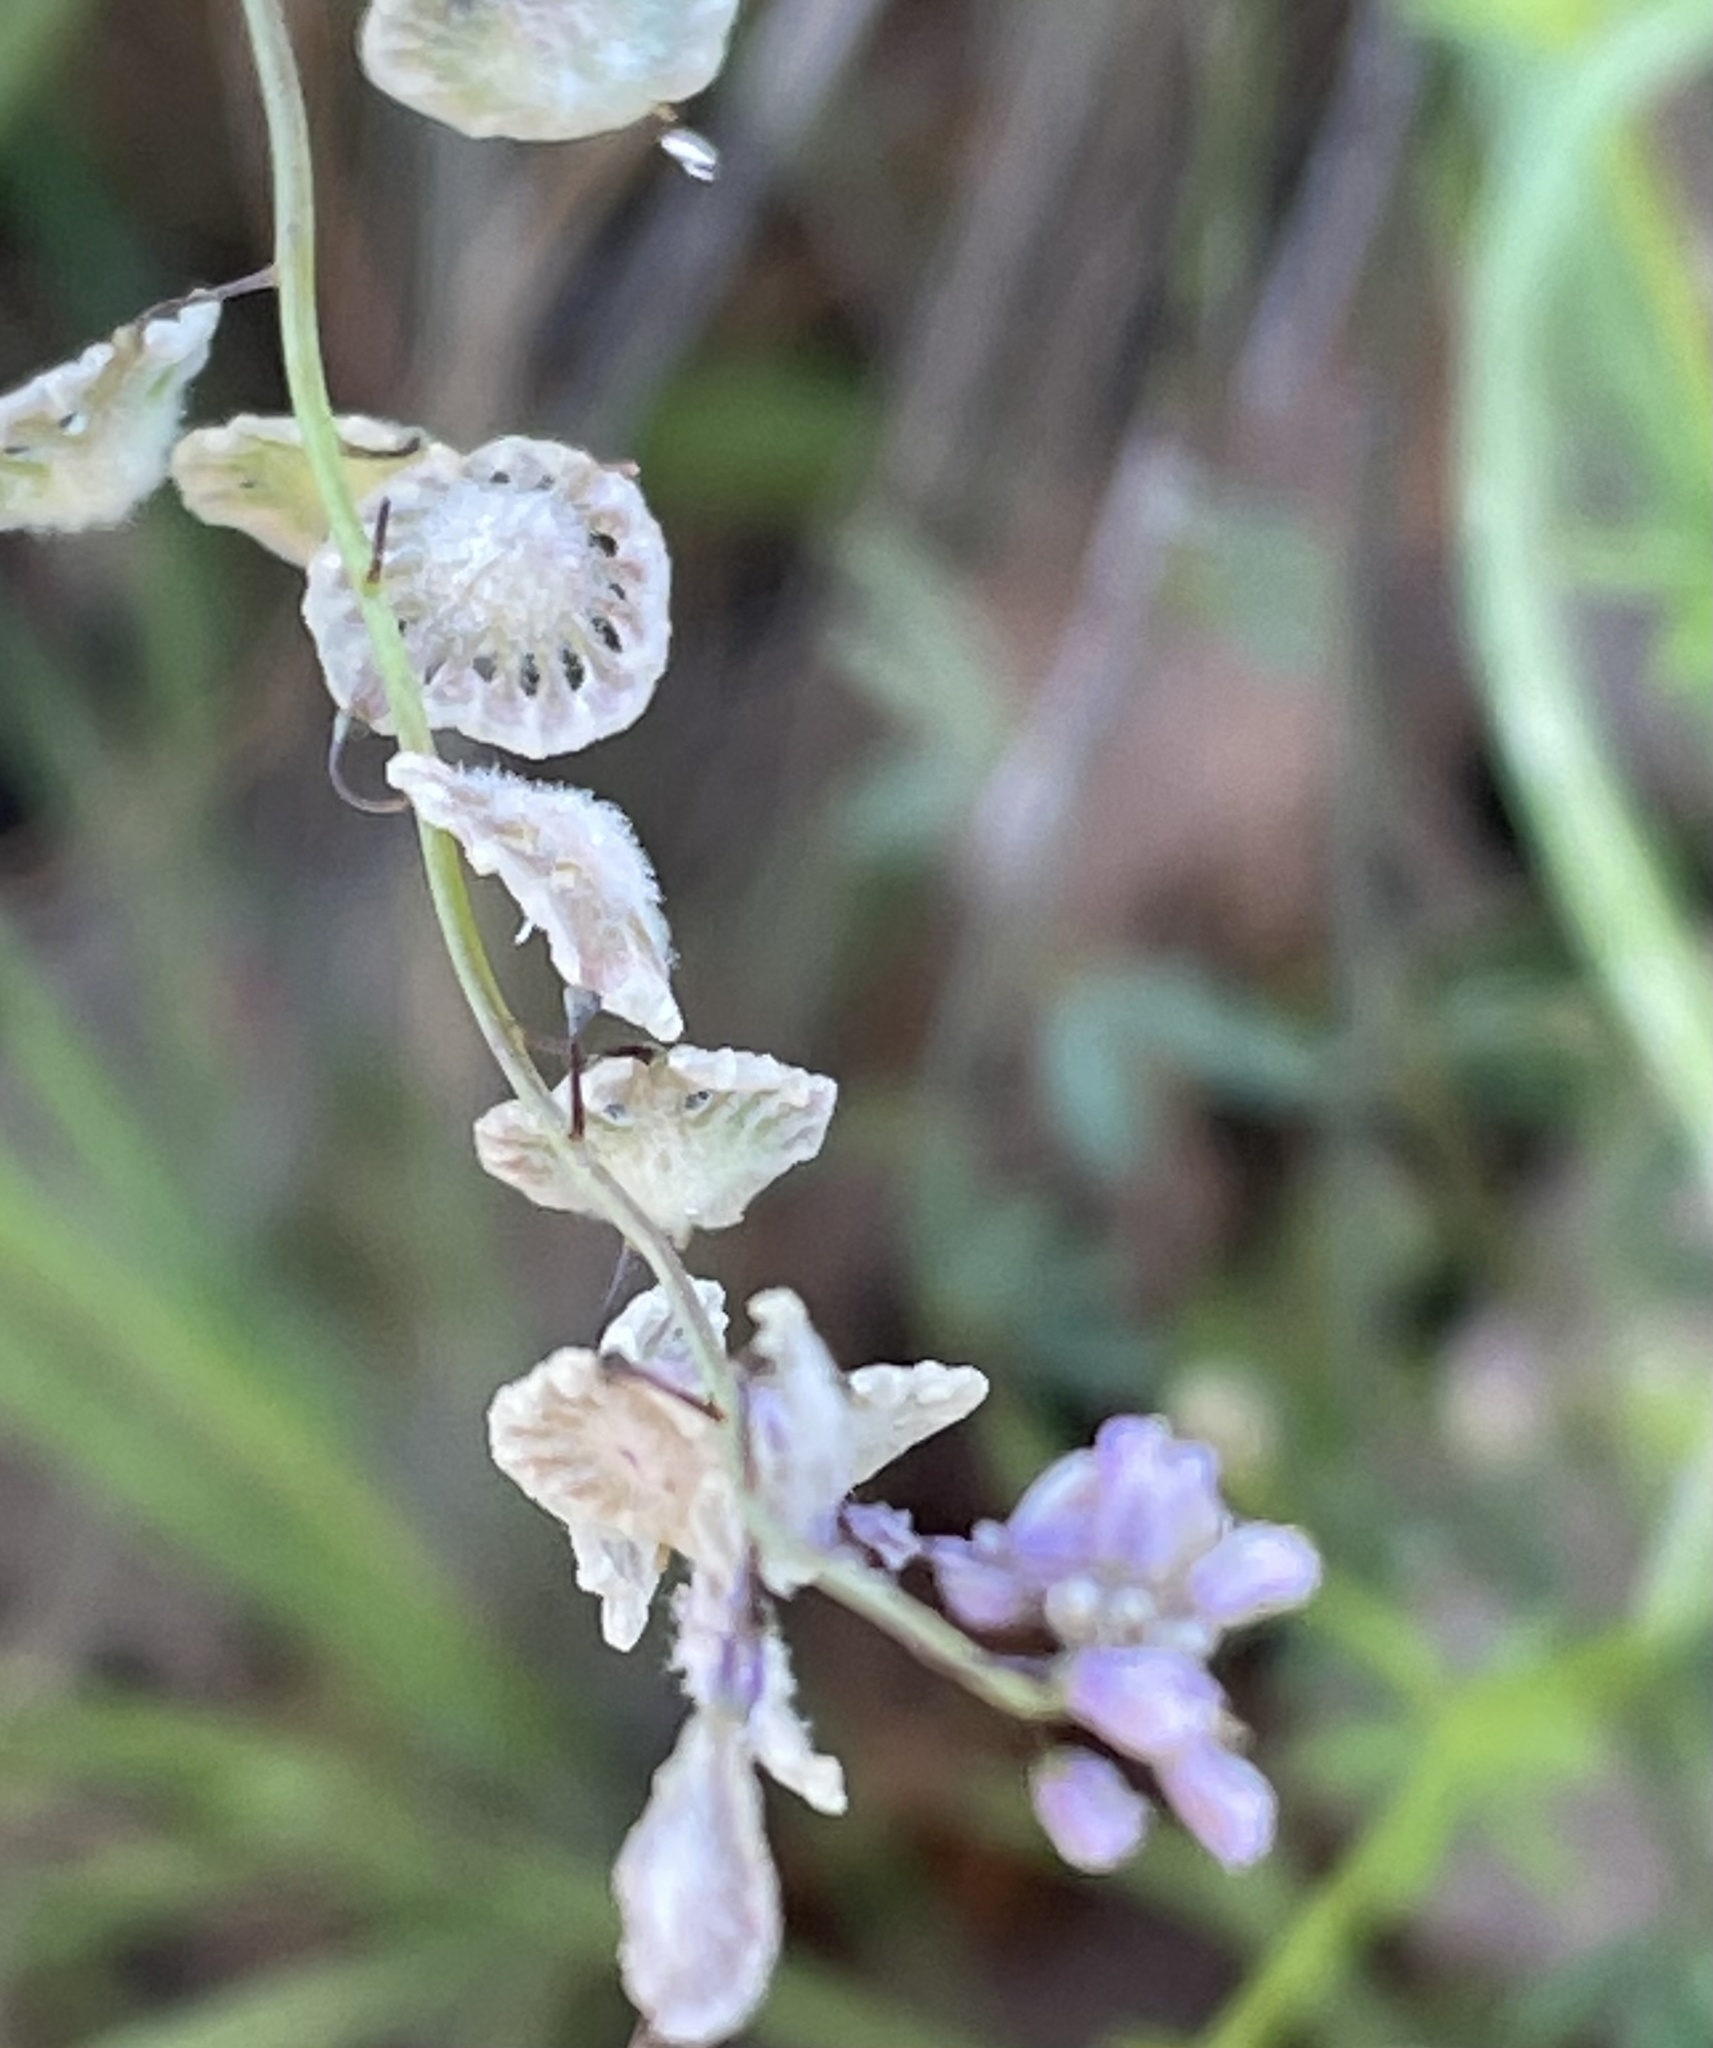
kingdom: Plantae
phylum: Tracheophyta
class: Magnoliopsida
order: Brassicales
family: Brassicaceae
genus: Thysanocarpus
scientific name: Thysanocarpus curvipes
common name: Sand fringepod
